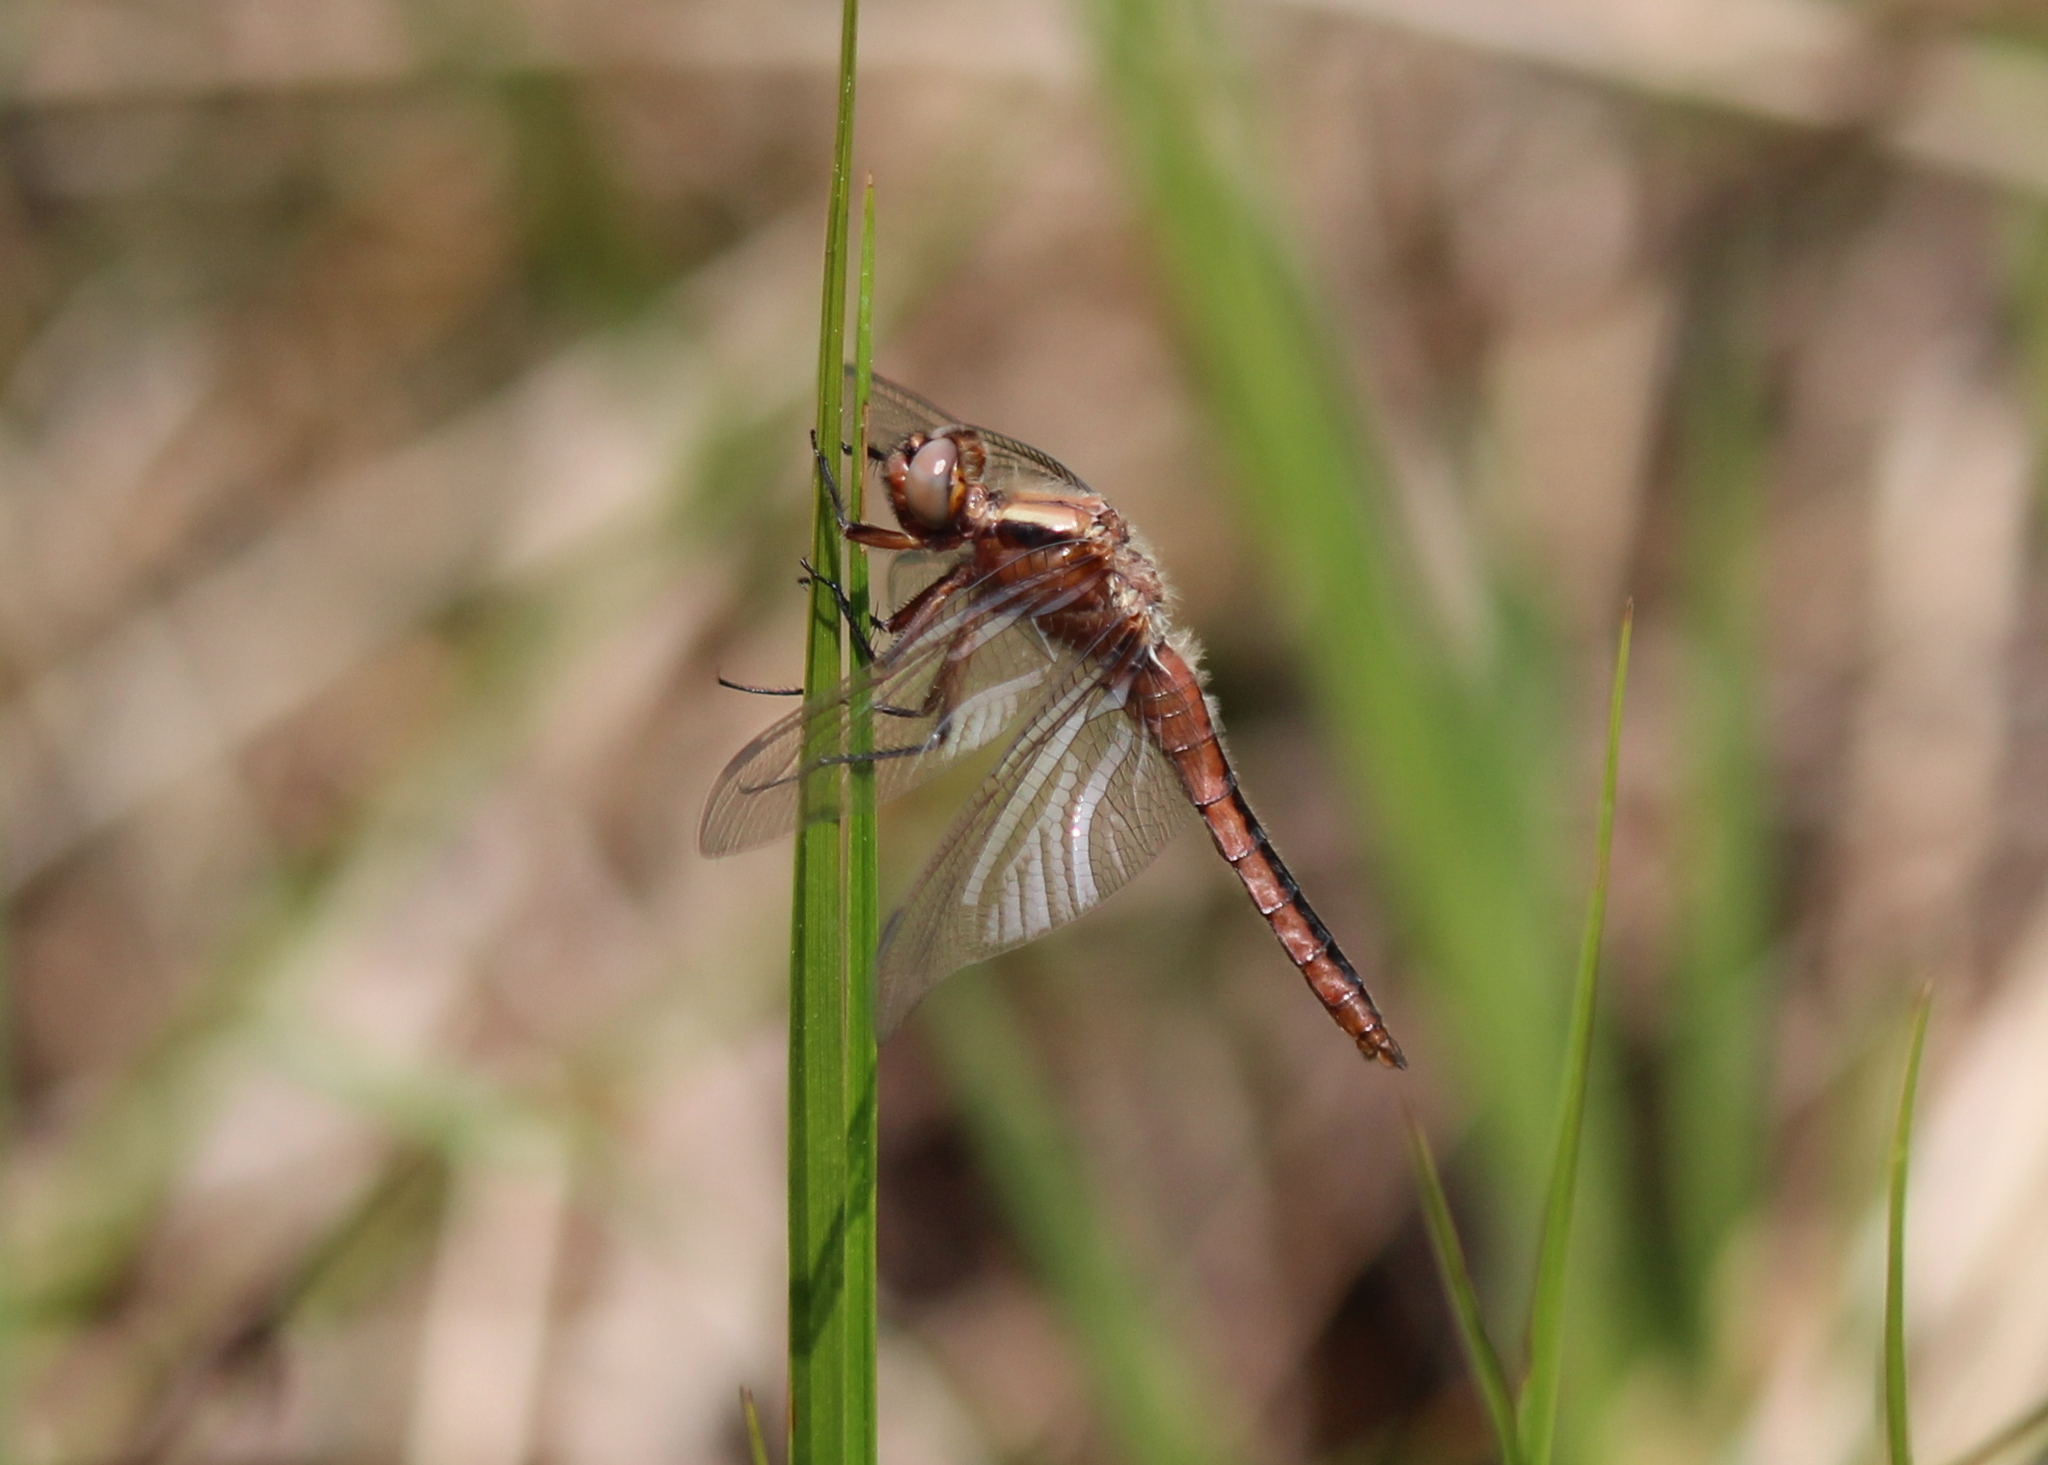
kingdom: Animalia
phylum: Arthropoda
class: Insecta
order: Odonata
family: Libellulidae
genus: Ladona
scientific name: Ladona julia
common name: Chalk-fronted corporal
